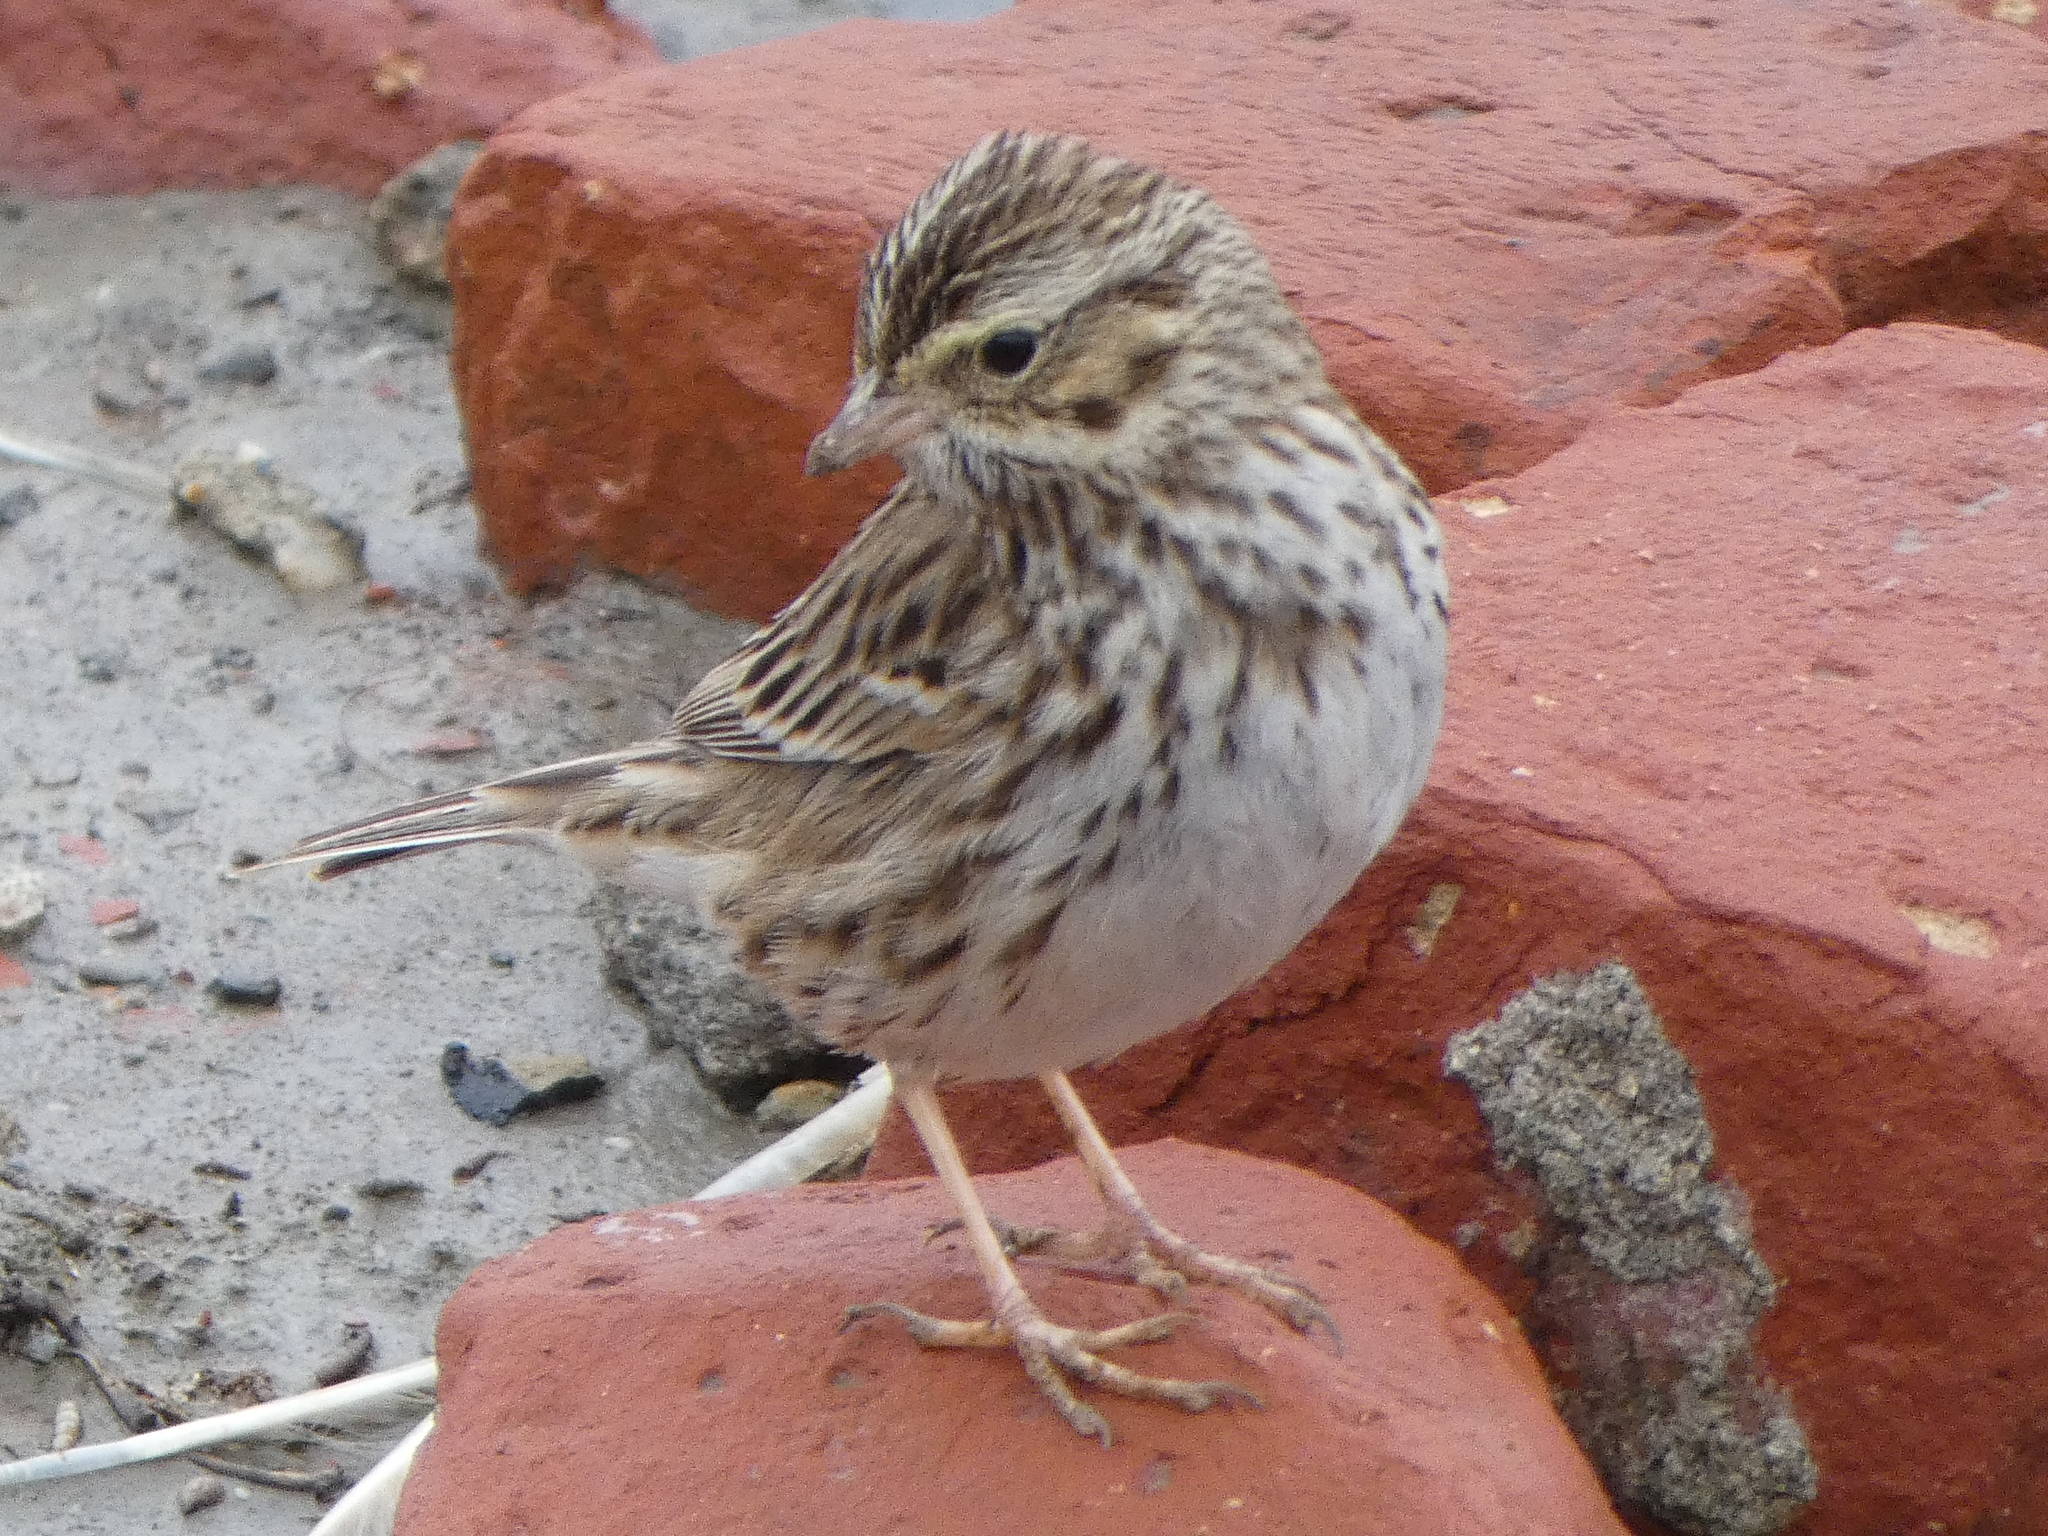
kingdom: Animalia
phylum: Chordata
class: Aves
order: Passeriformes
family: Passerellidae
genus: Passerculus
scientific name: Passerculus sandwichensis
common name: Savannah sparrow
